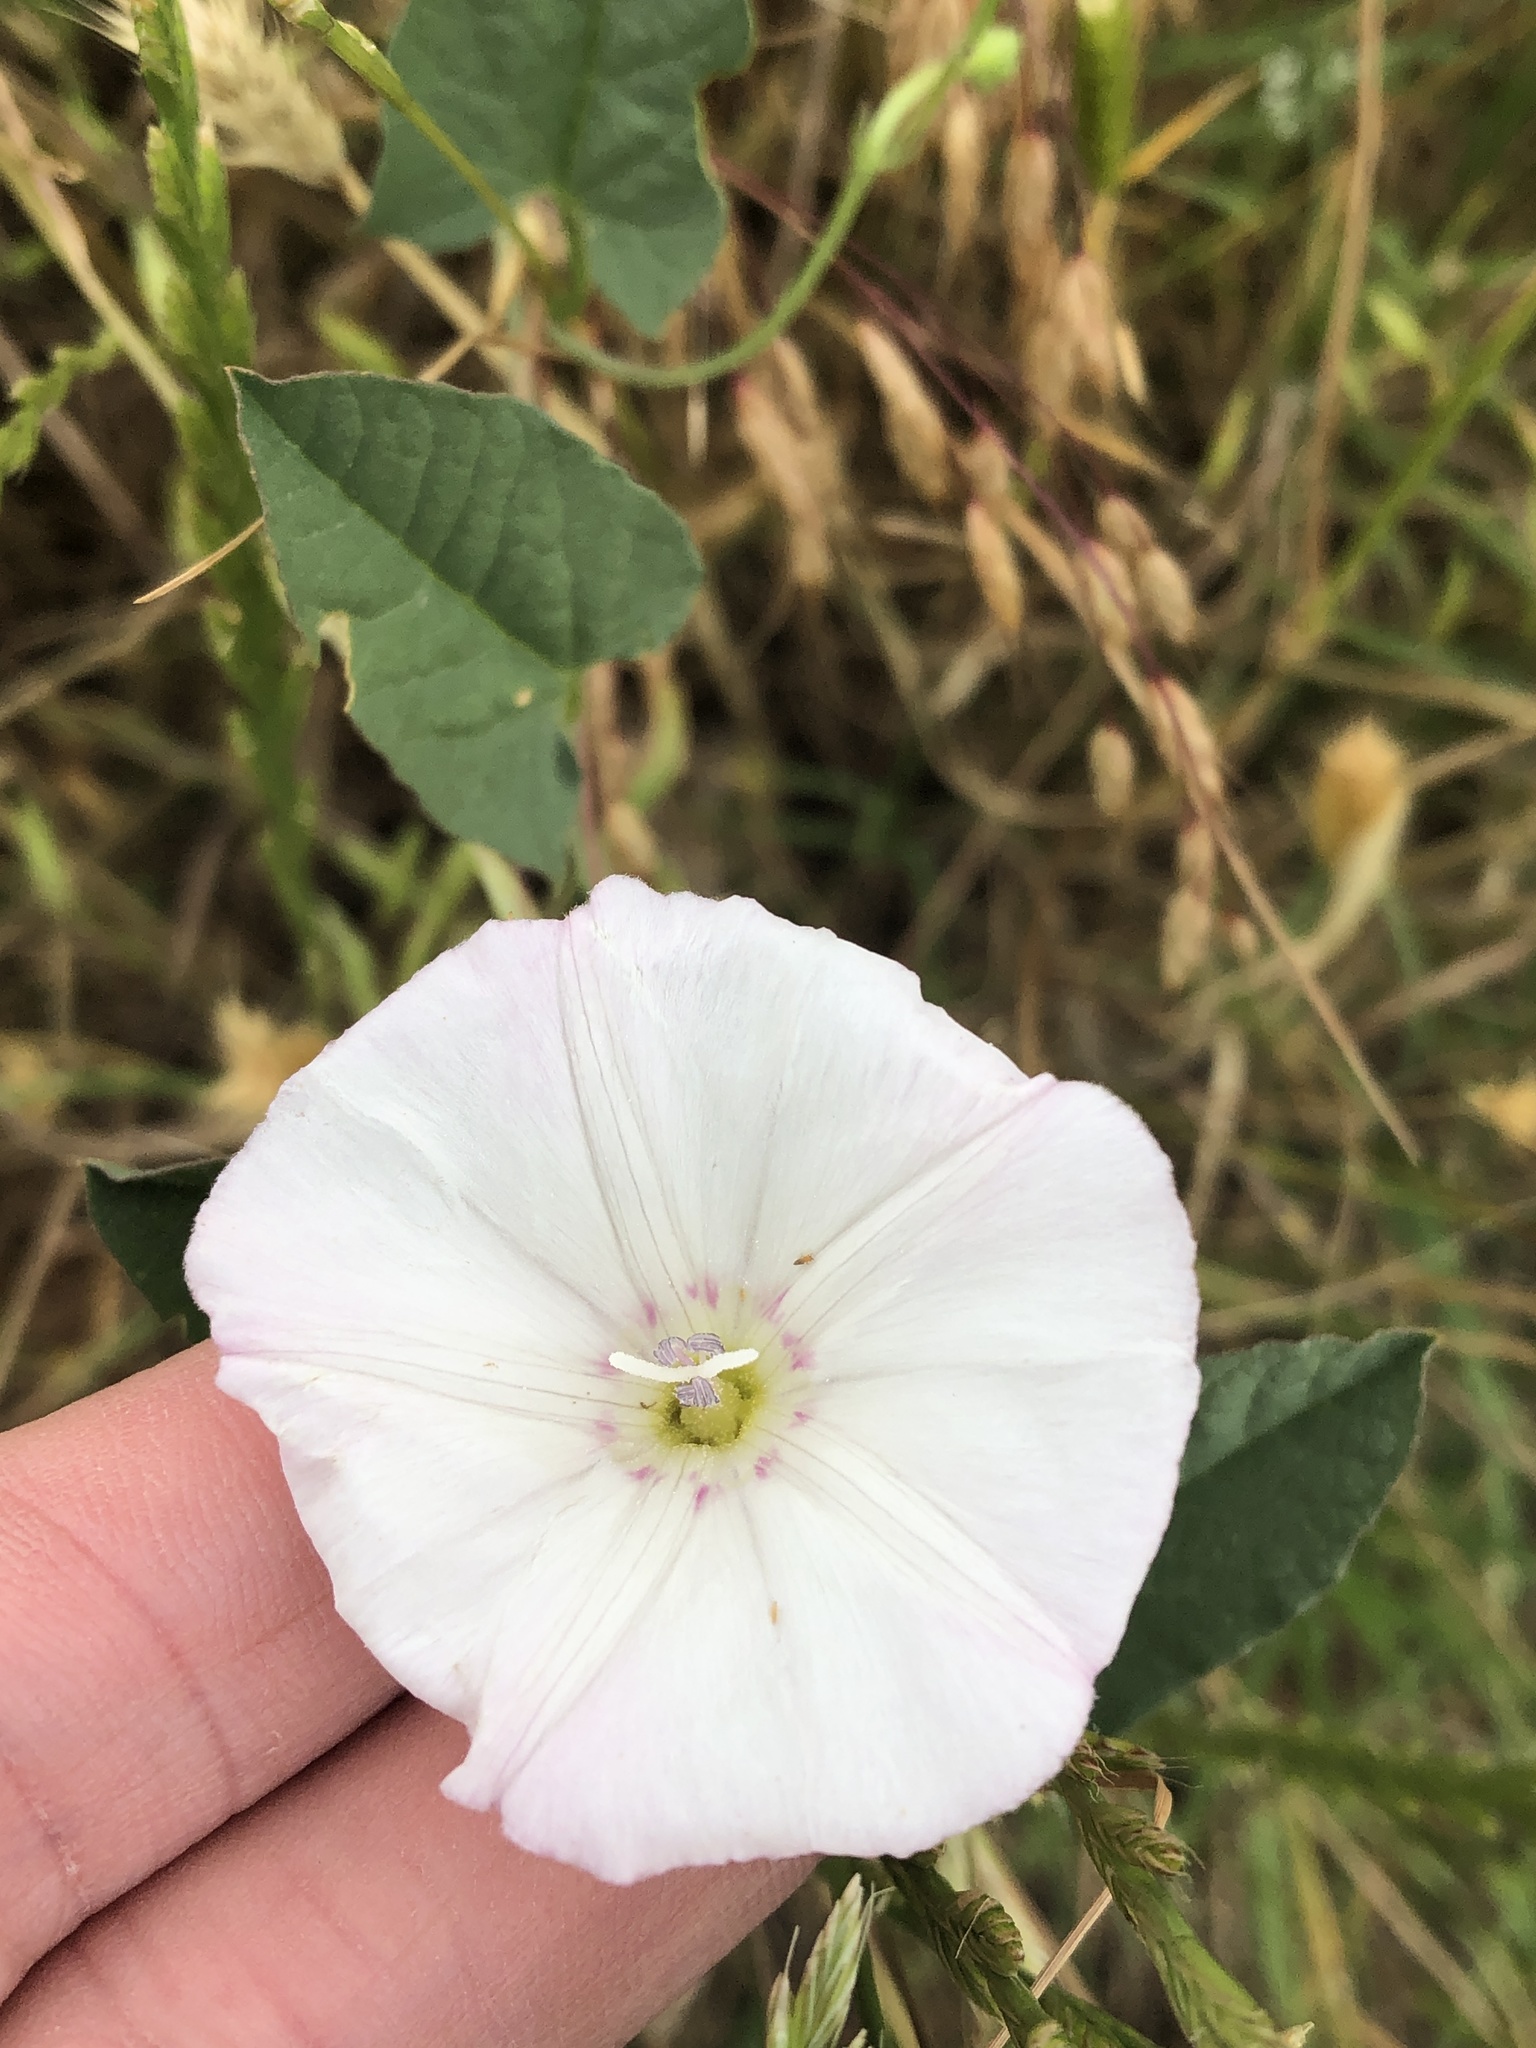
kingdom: Plantae
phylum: Tracheophyta
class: Magnoliopsida
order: Solanales
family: Convolvulaceae
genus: Convolvulus
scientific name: Convolvulus arvensis
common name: Field bindweed
